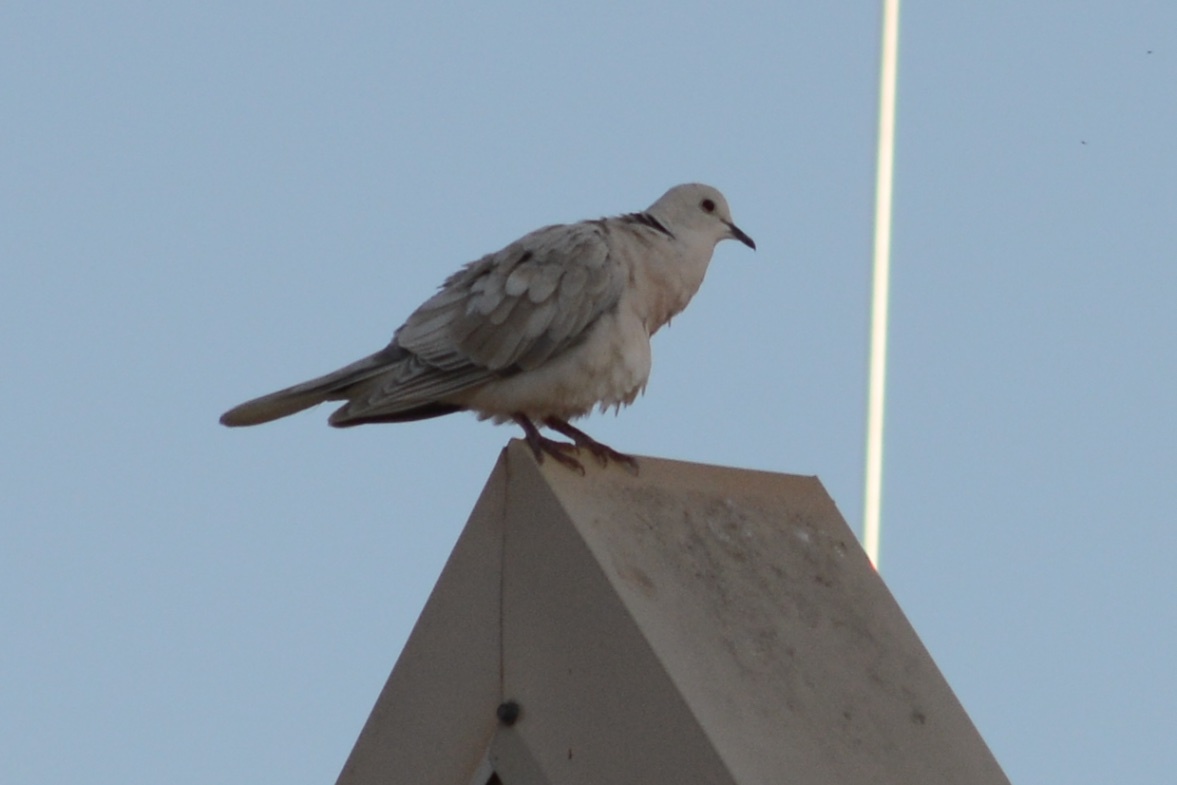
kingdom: Animalia
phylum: Chordata
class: Aves
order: Columbiformes
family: Columbidae
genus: Streptopelia
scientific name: Streptopelia roseogrisea
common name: African collared dove
